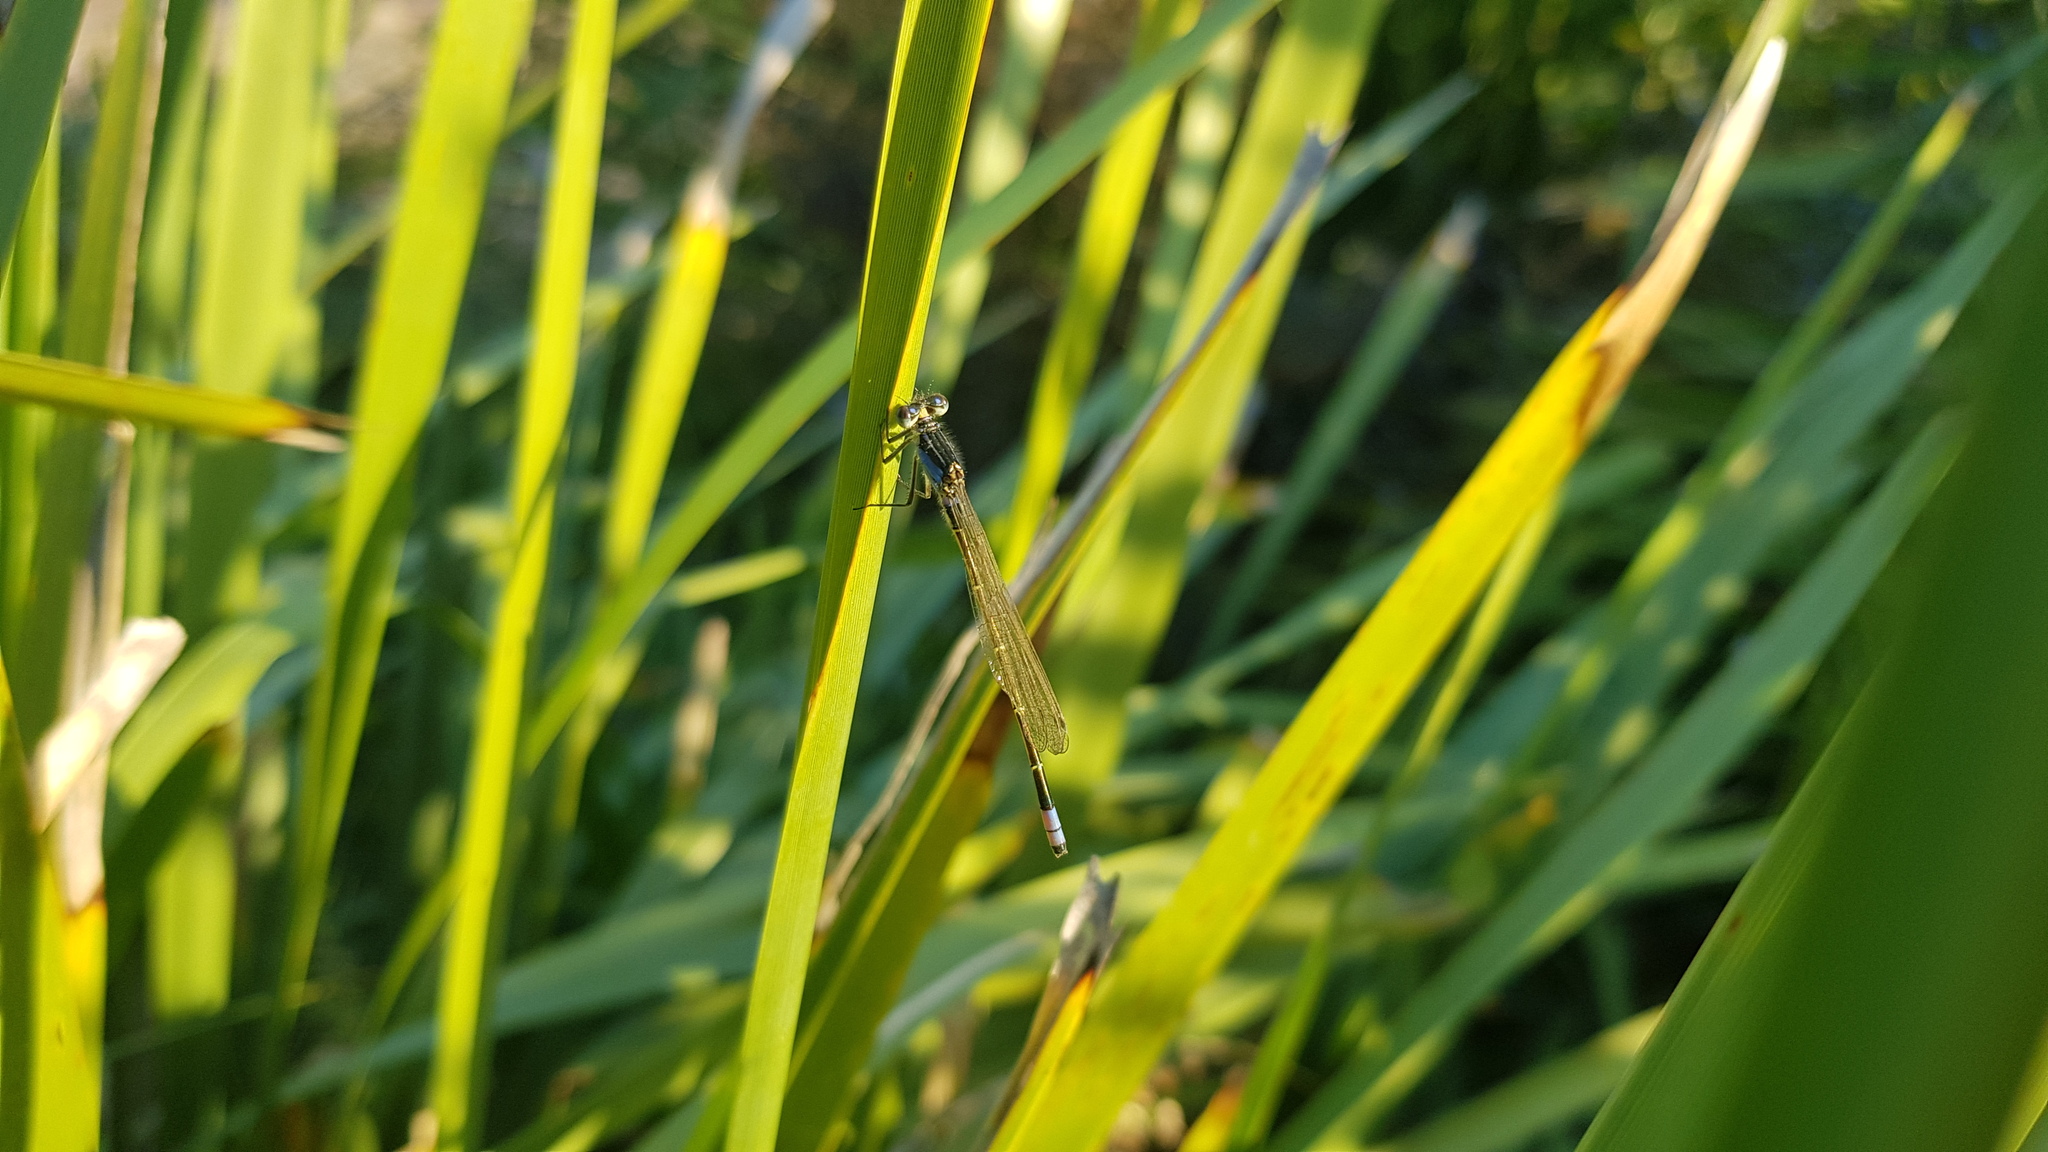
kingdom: Animalia
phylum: Arthropoda
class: Insecta
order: Odonata
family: Coenagrionidae
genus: Ischnura
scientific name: Ischnura heterosticta
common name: Common bluetail
